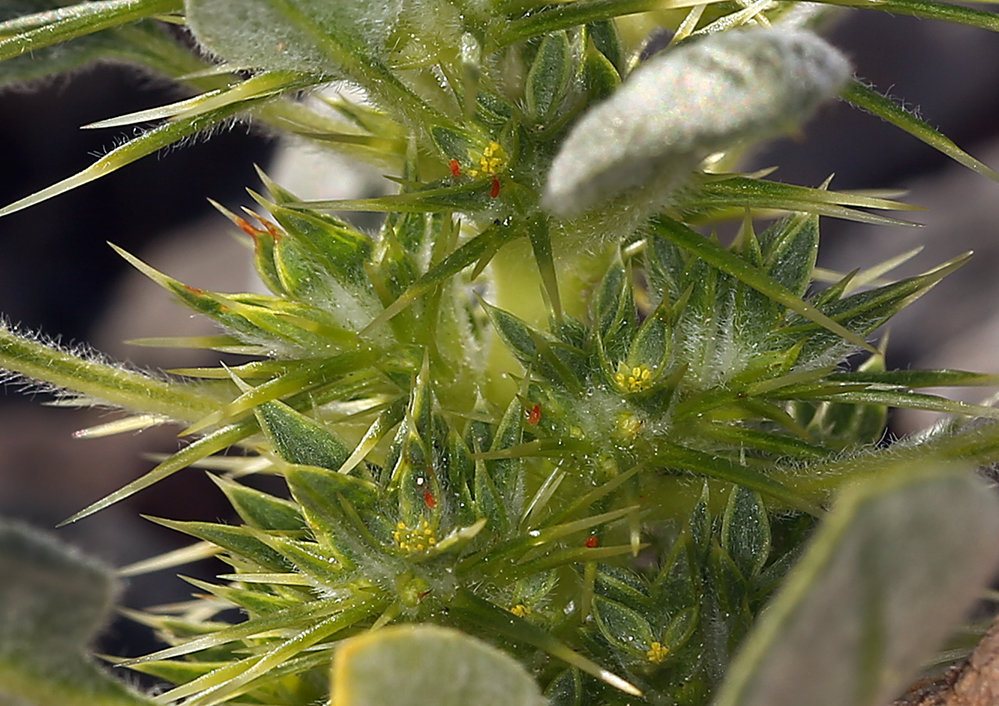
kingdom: Plantae
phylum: Tracheophyta
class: Magnoliopsida
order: Caryophyllales
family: Polygonaceae
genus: Chorizanthe
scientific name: Chorizanthe rigida
